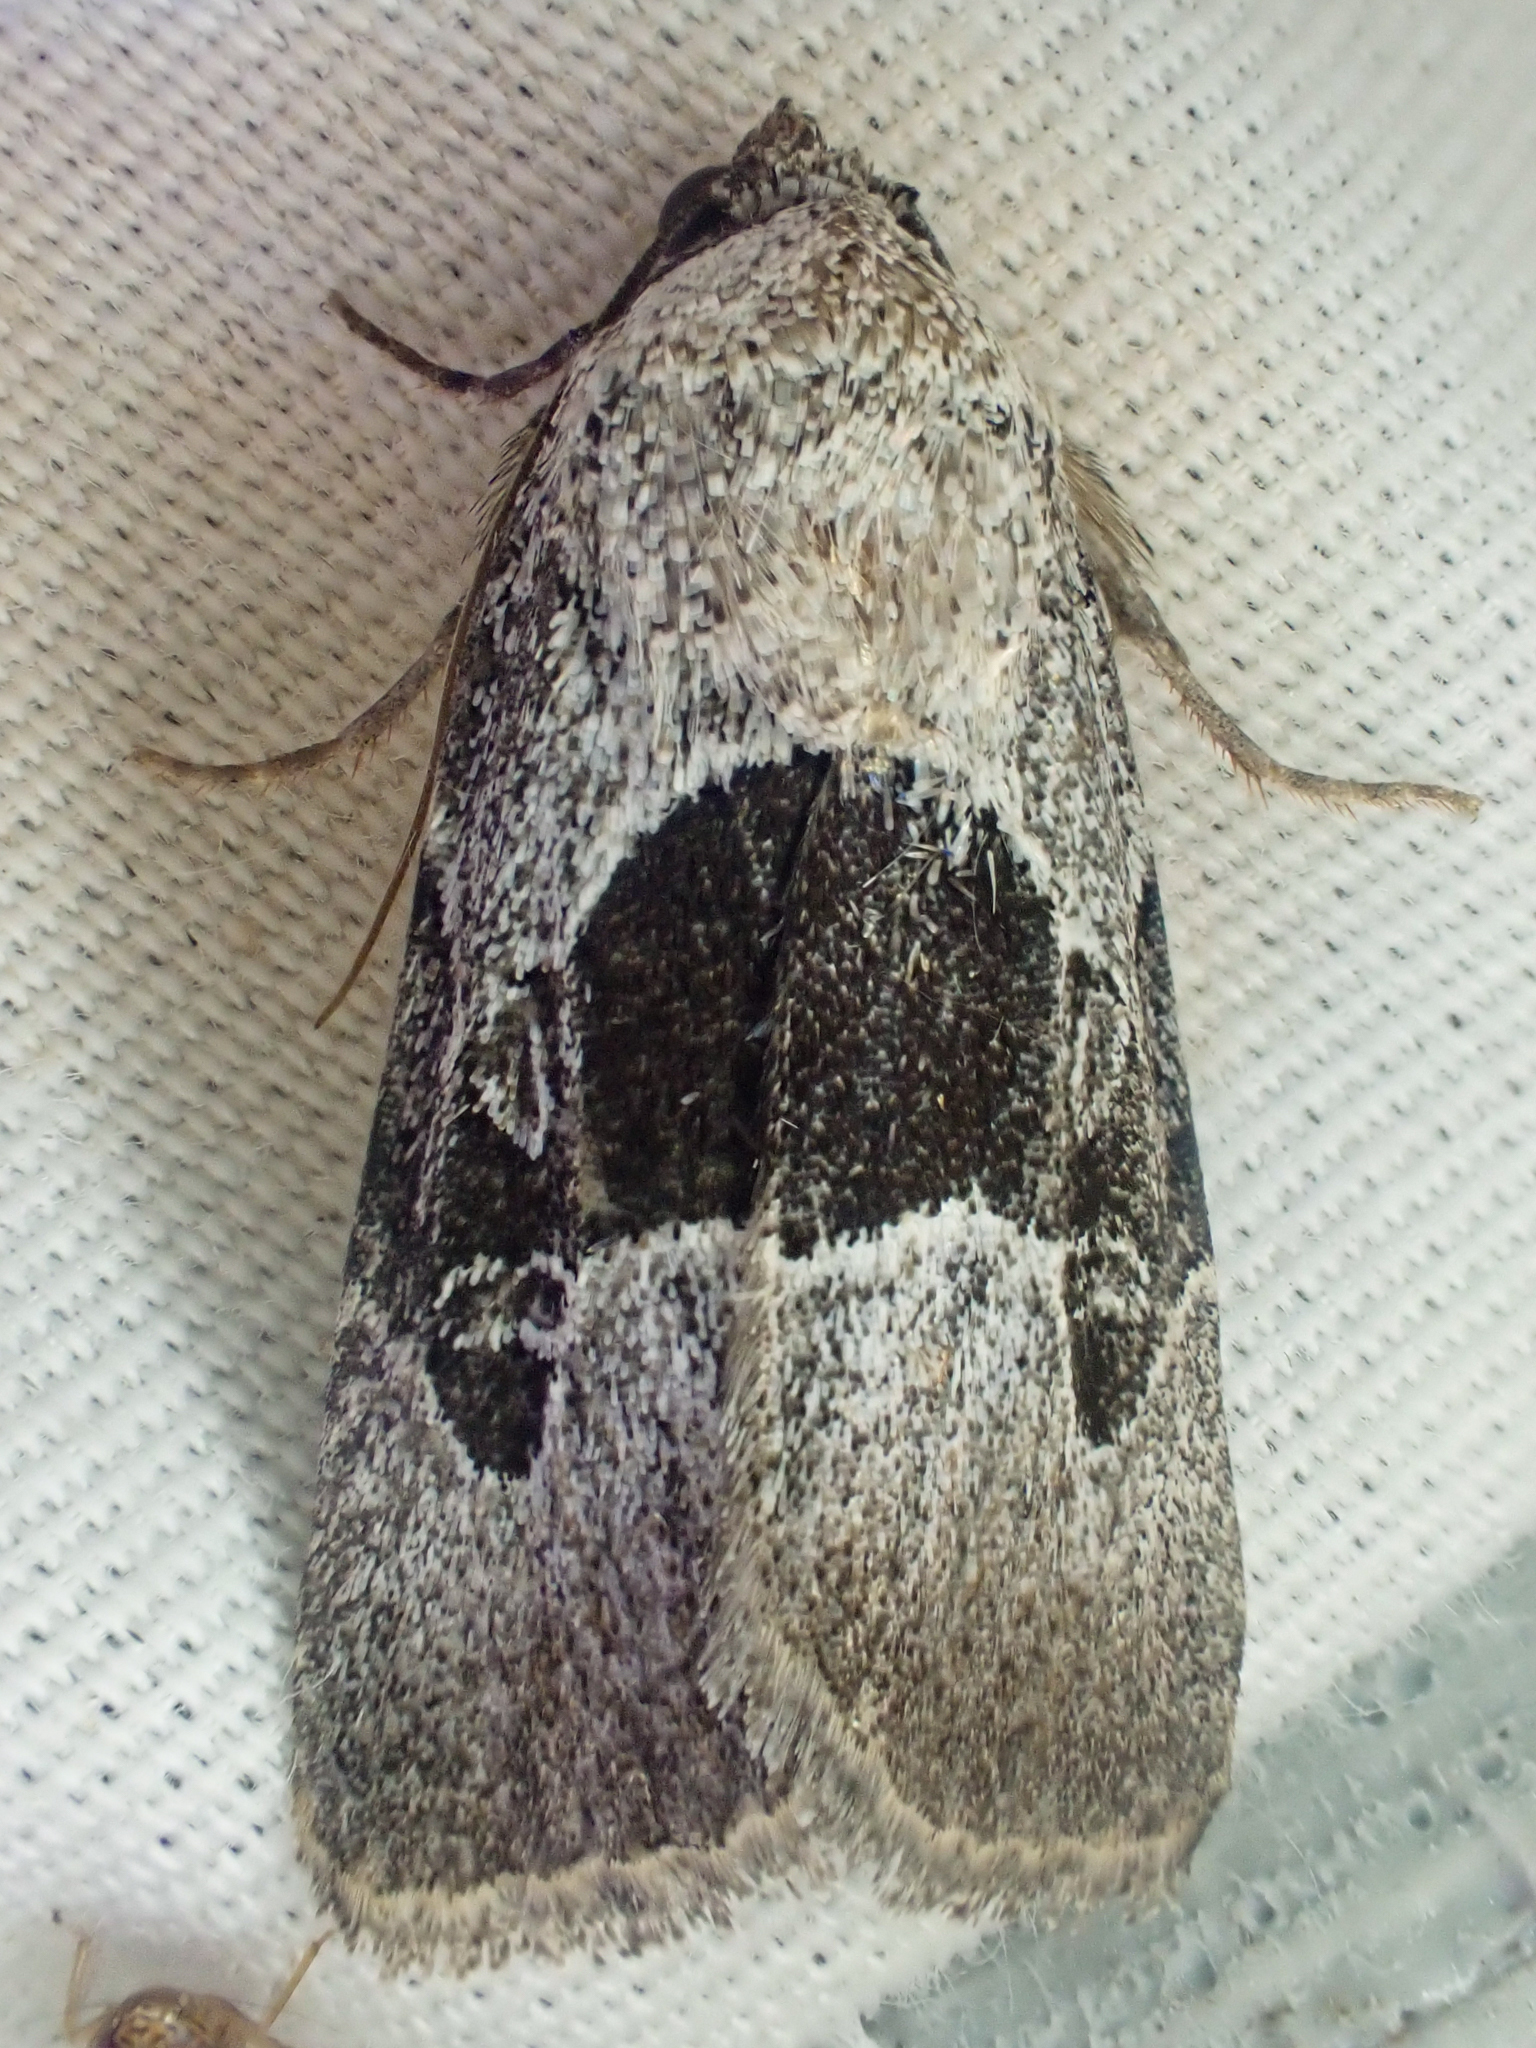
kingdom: Animalia
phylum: Arthropoda
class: Insecta
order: Lepidoptera
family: Noctuidae
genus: Sympistis
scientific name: Sympistis umbrifascia
